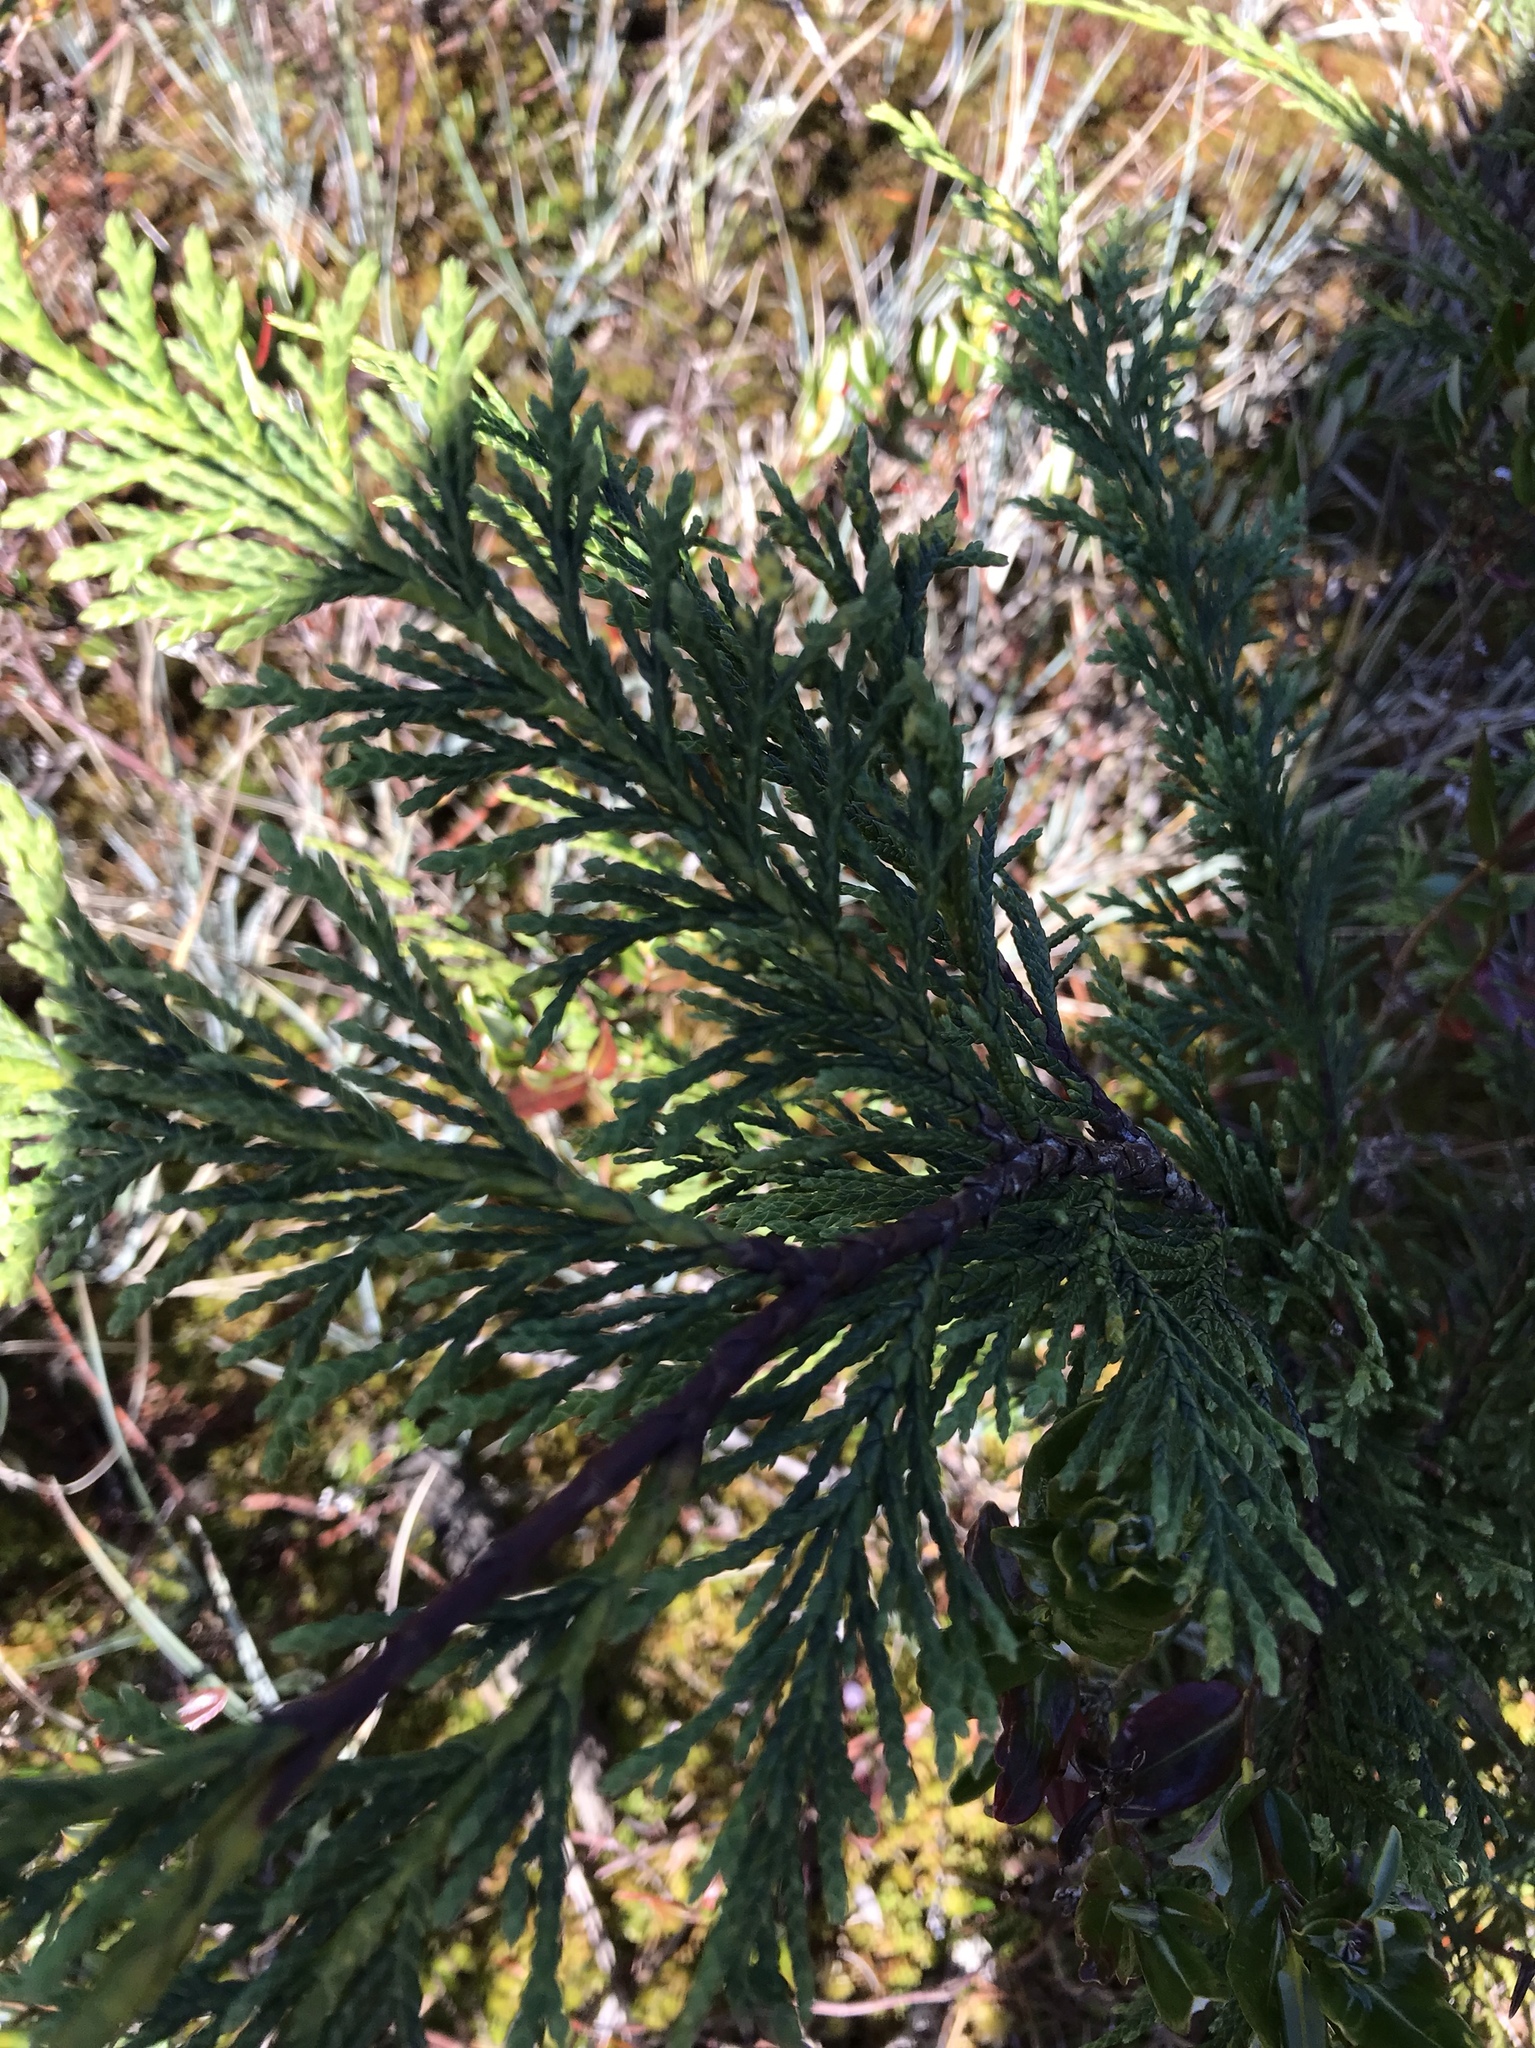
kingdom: Plantae
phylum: Tracheophyta
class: Pinopsida
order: Pinales
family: Cupressaceae
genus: Xanthocyparis
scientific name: Xanthocyparis nootkatensis
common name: Nootka cypress
